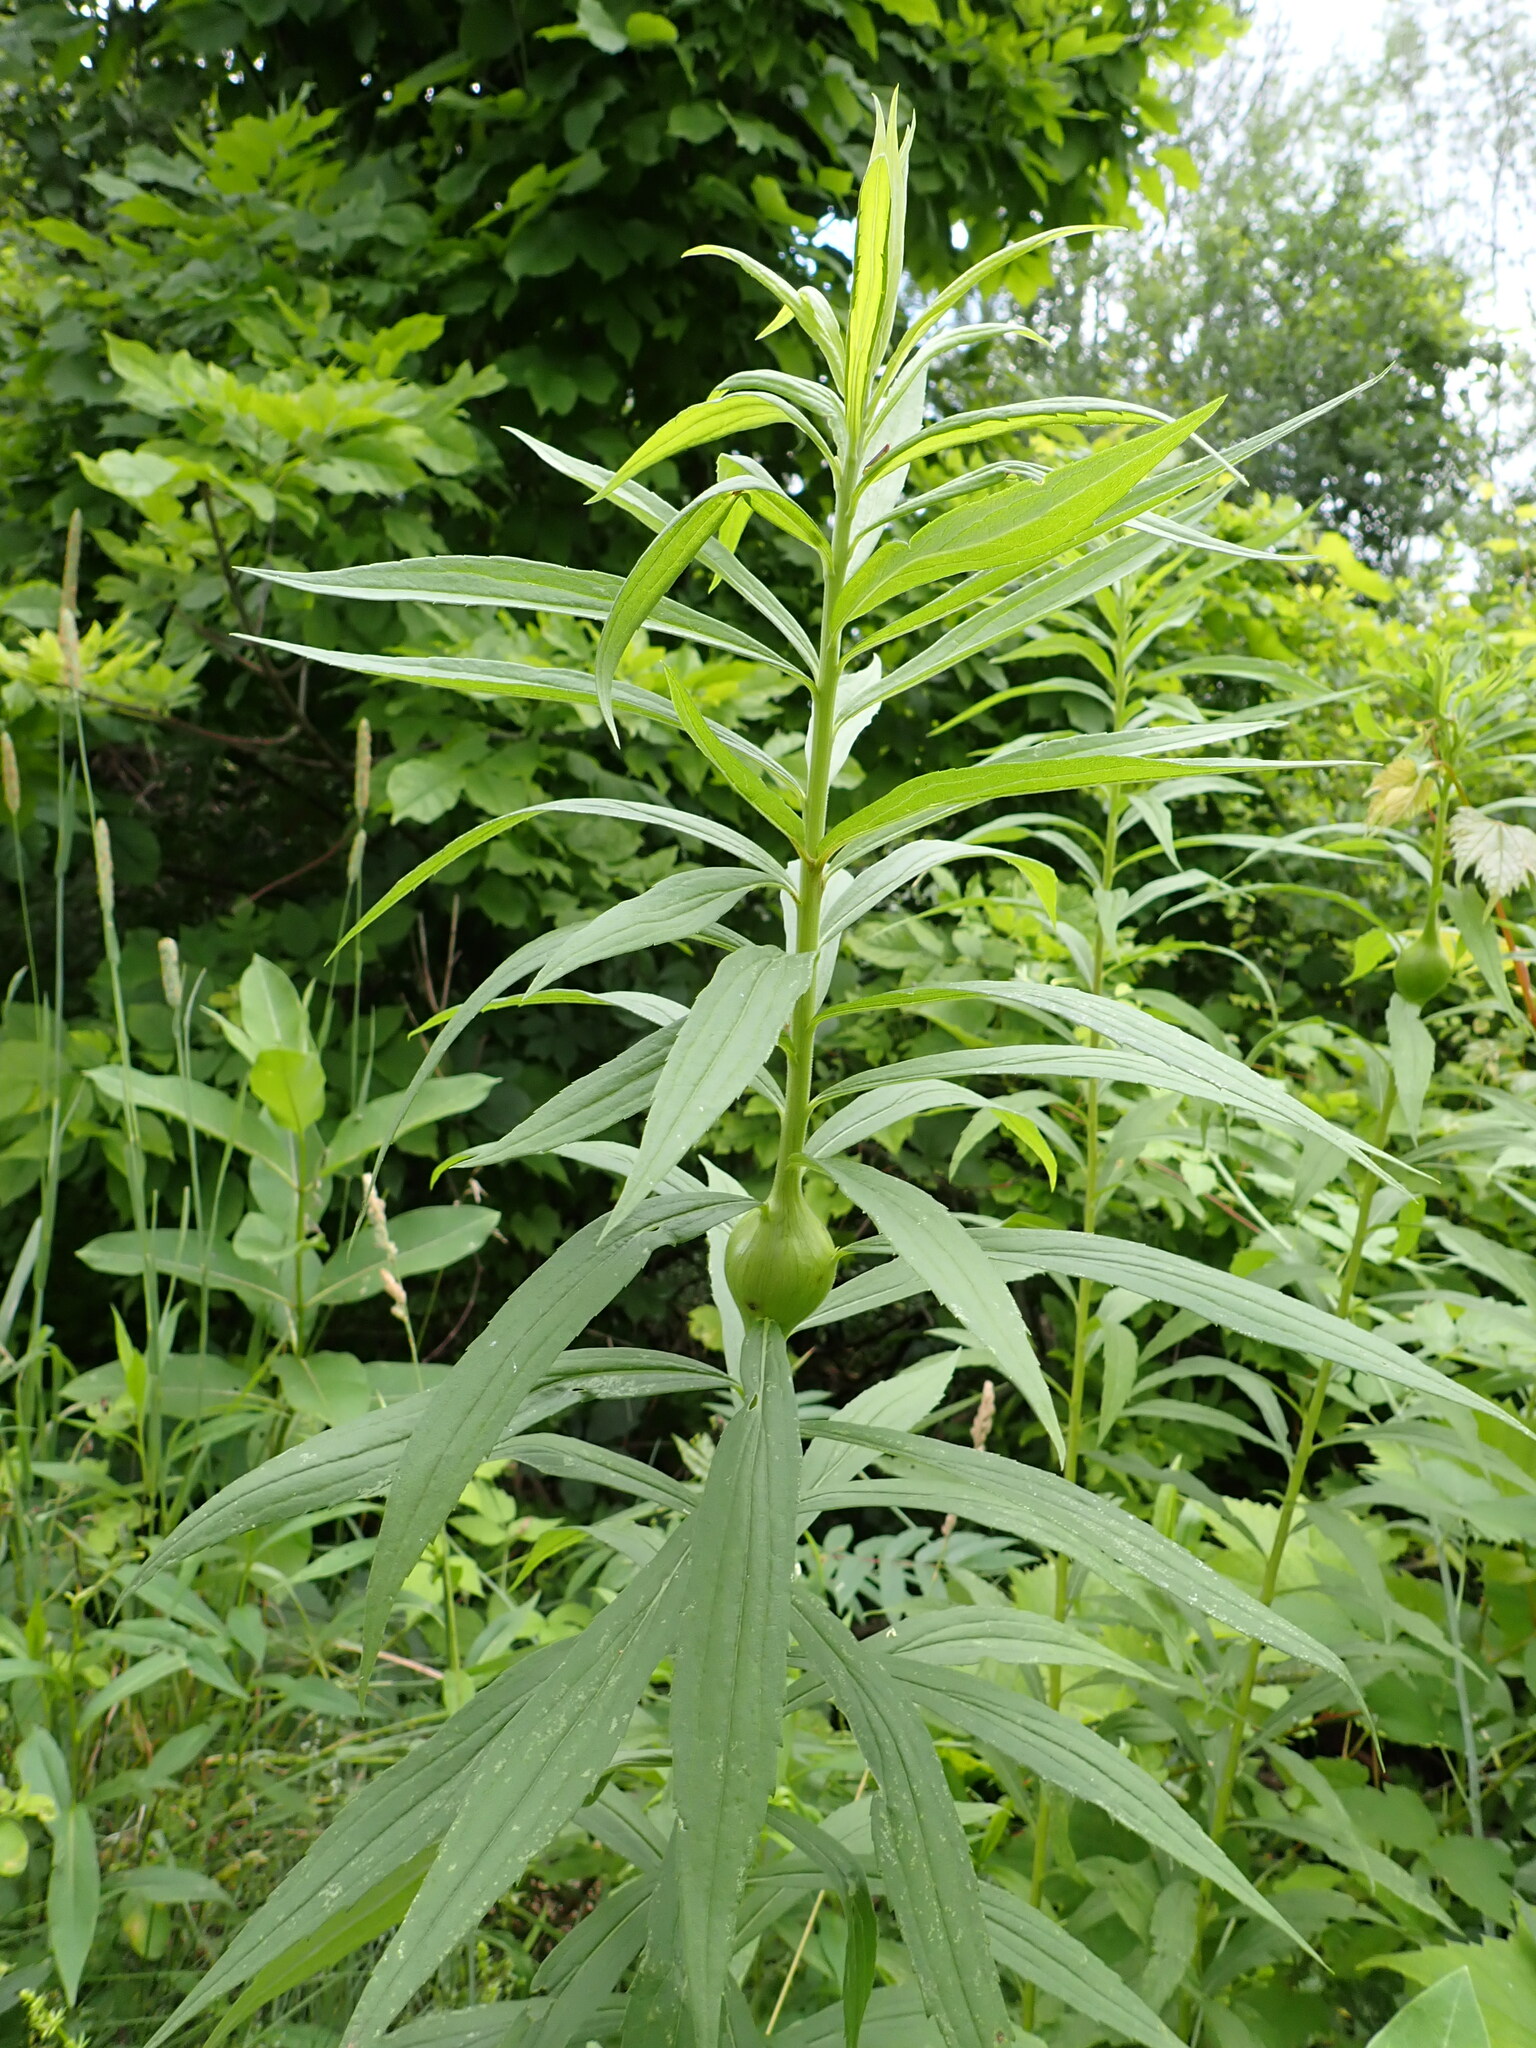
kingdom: Animalia
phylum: Arthropoda
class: Insecta
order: Diptera
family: Tephritidae
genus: Eurosta
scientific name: Eurosta solidaginis
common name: Goldenrod gall fly
